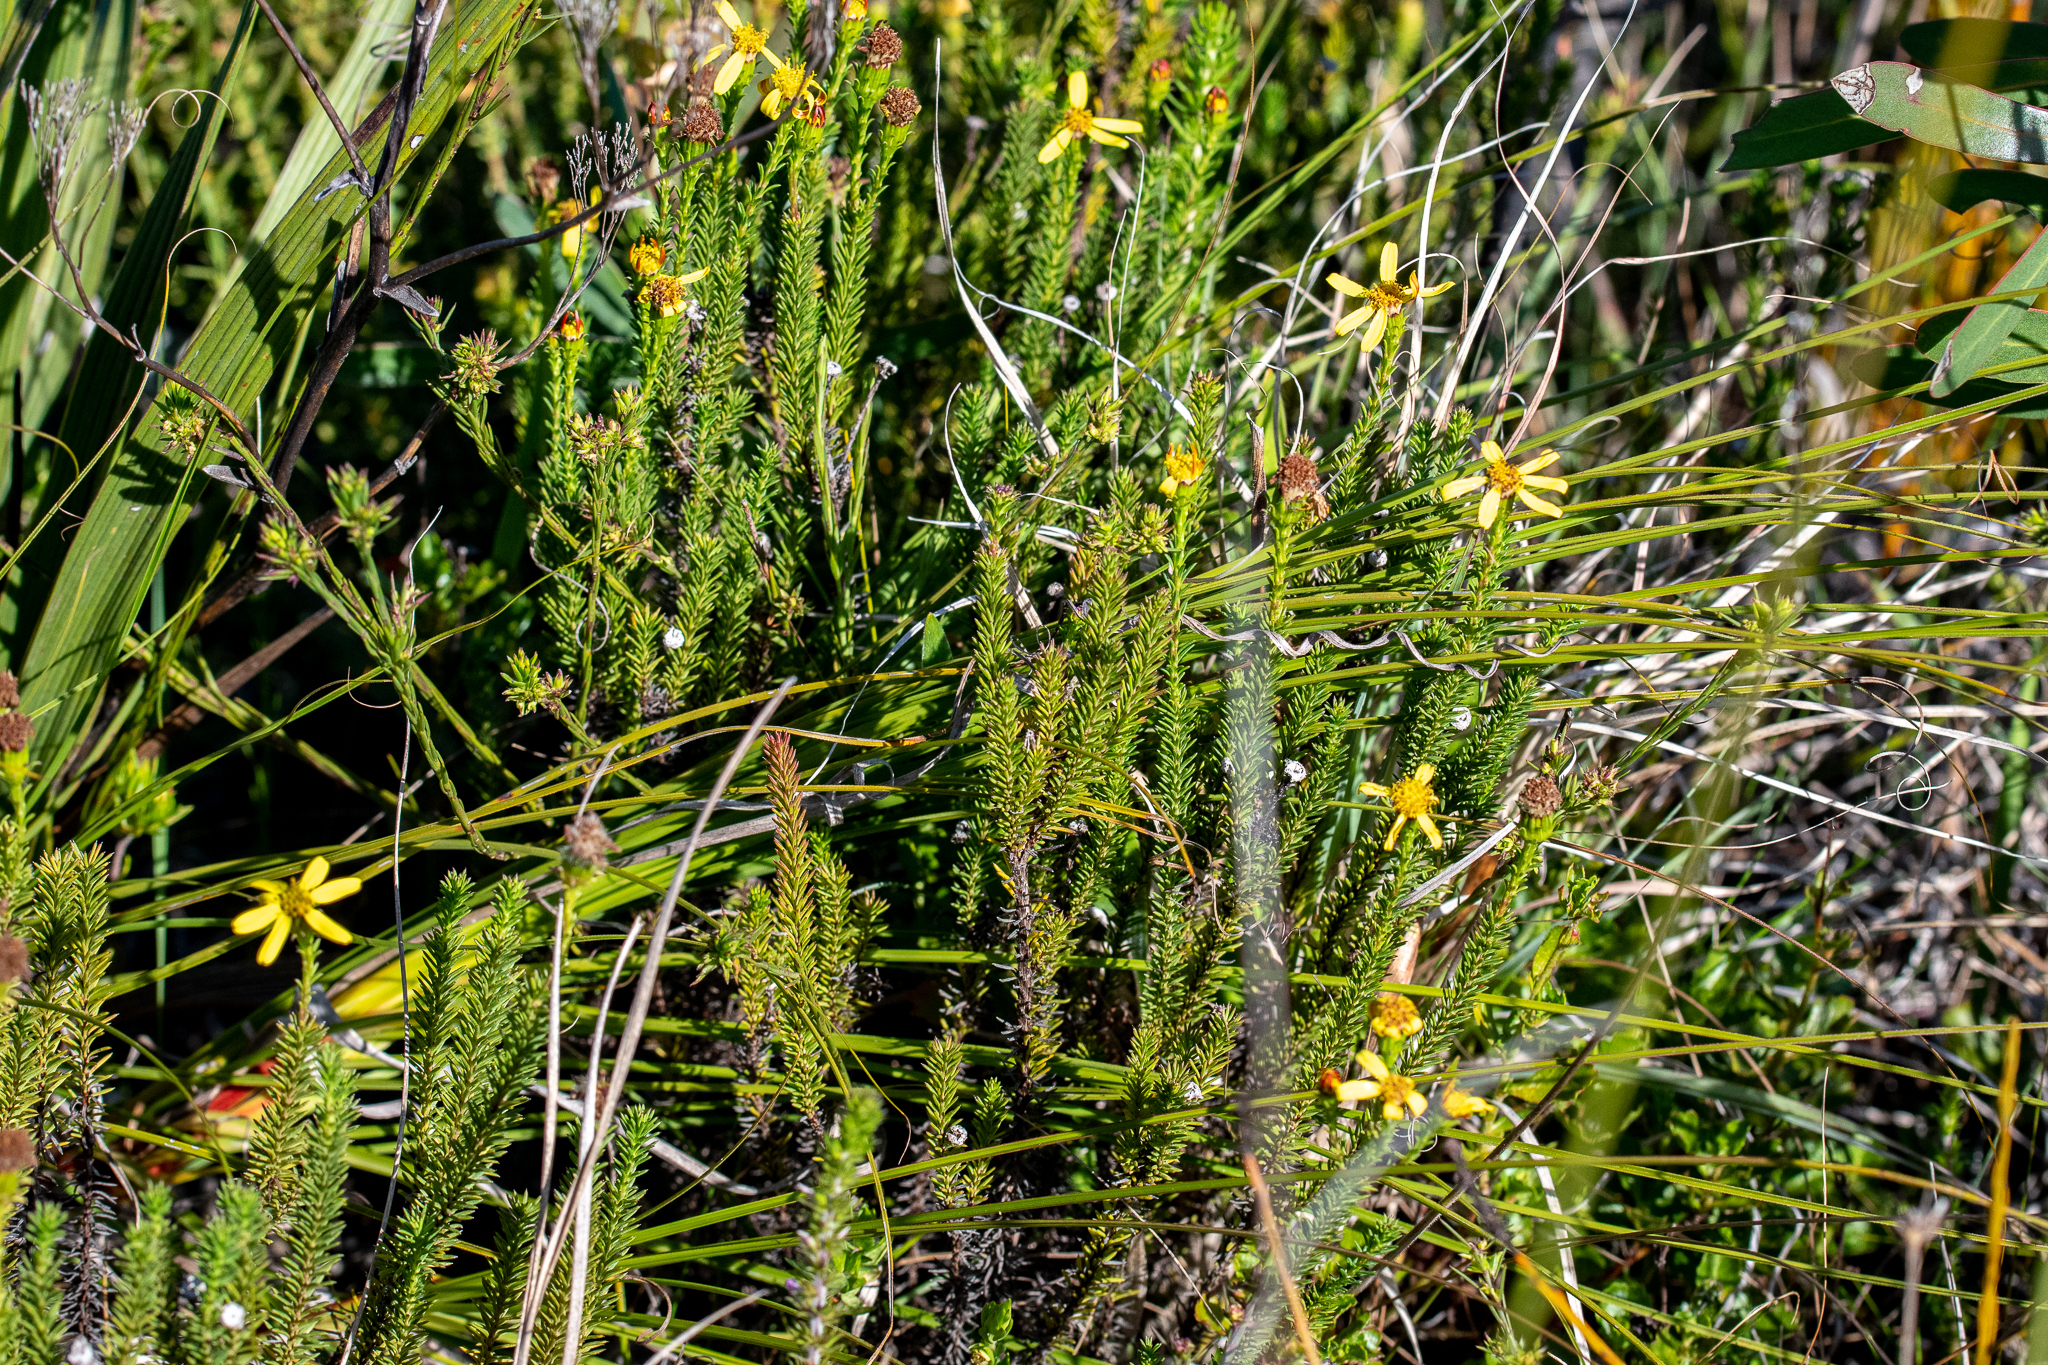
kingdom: Plantae
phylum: Tracheophyta
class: Magnoliopsida
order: Asterales
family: Asteraceae
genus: Senecio
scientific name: Senecio pinifolius
